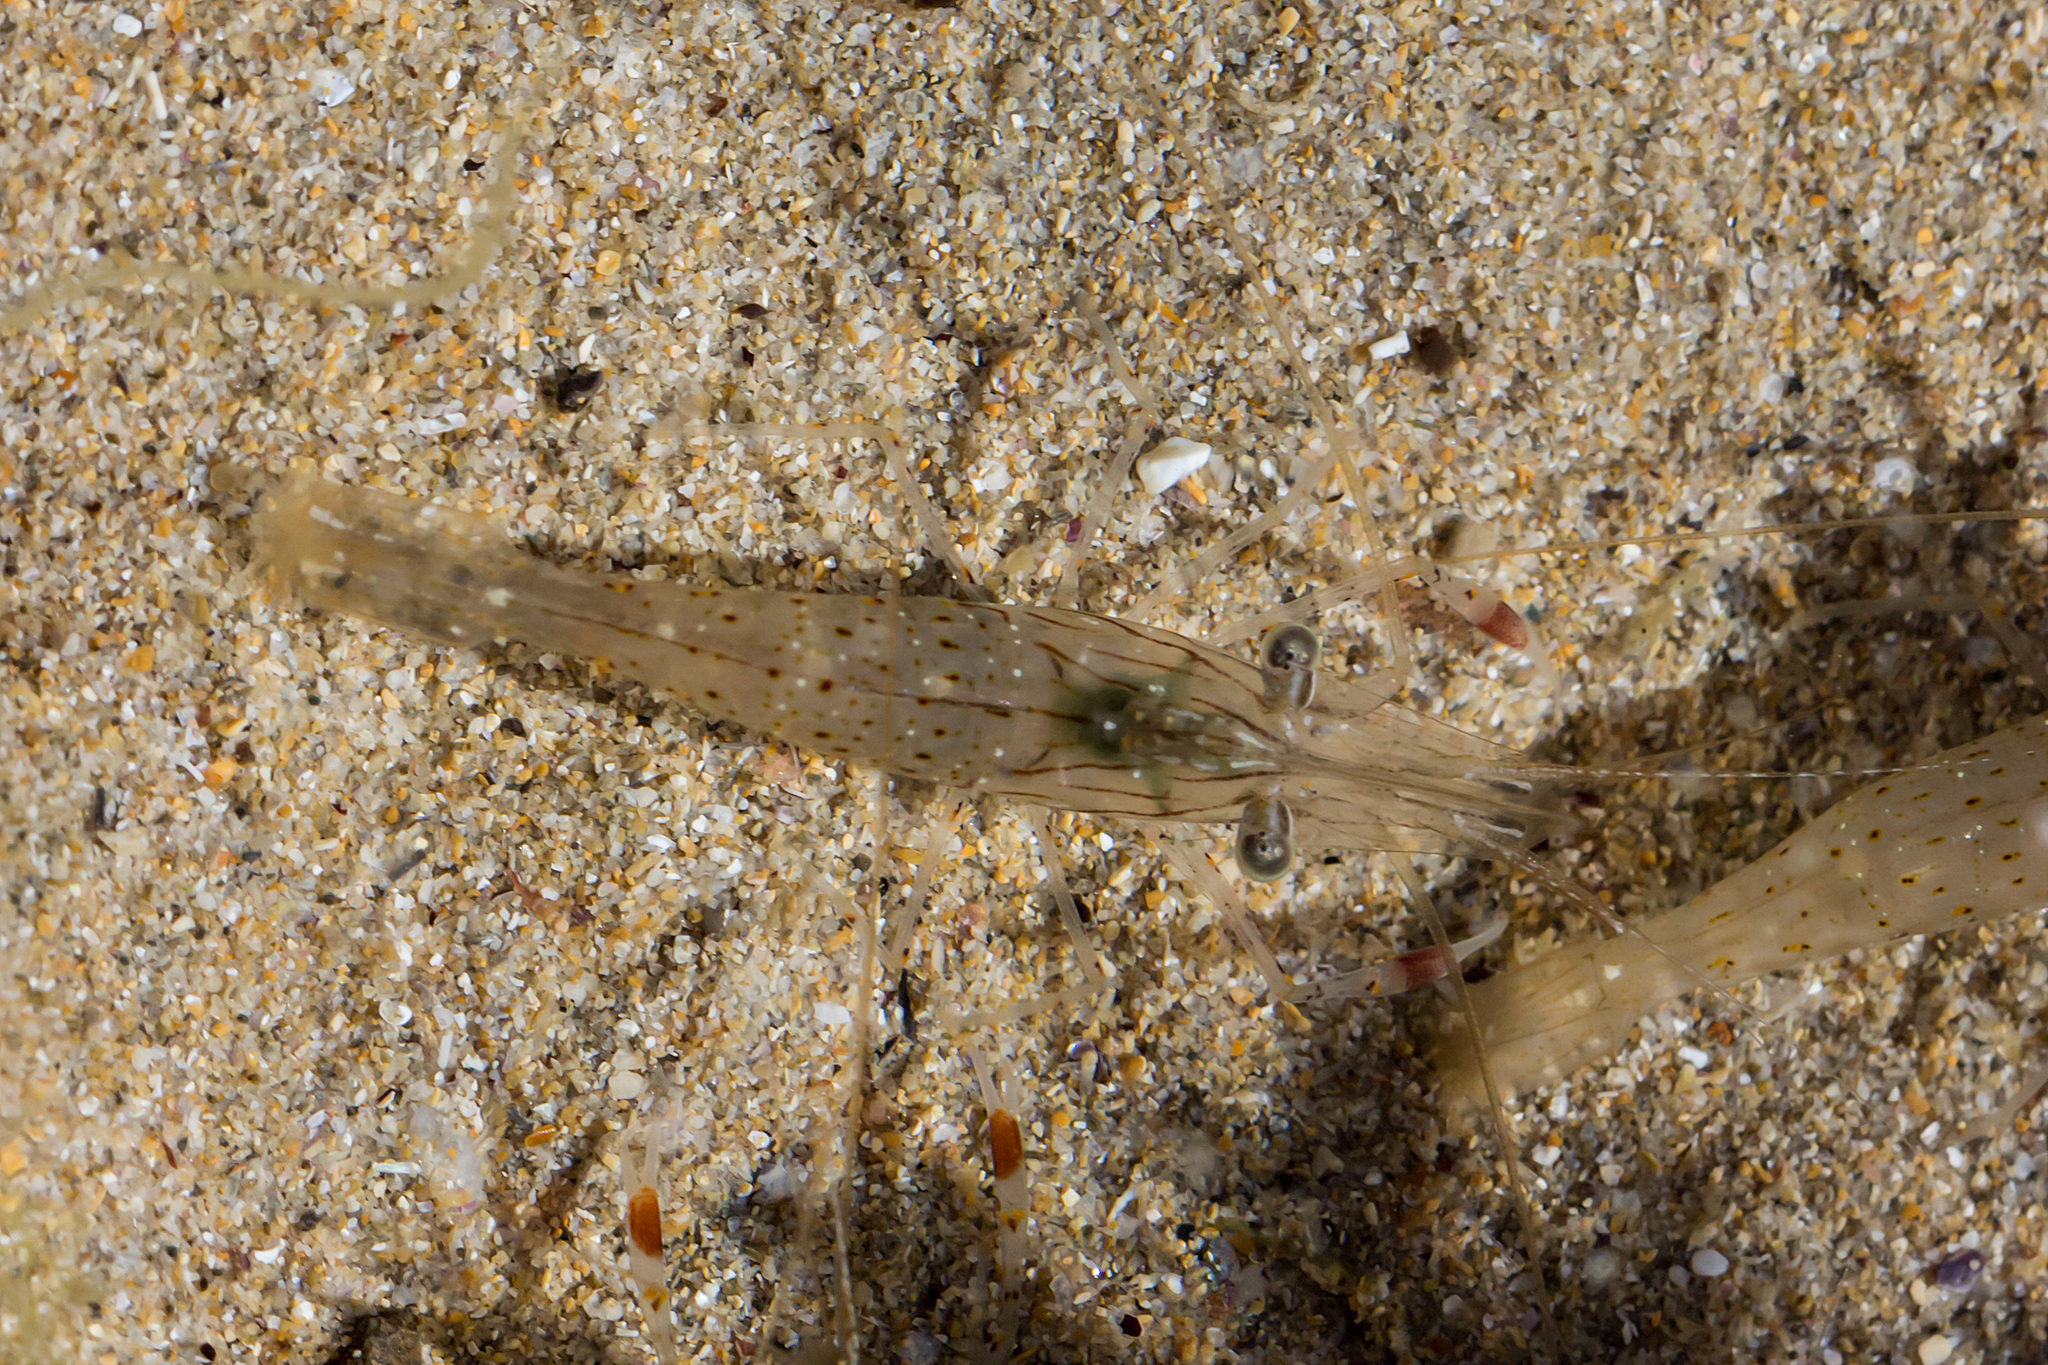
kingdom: Animalia
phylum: Arthropoda
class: Malacostraca
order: Decapoda
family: Palaemonidae
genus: Palaemon
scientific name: Palaemon serenus
